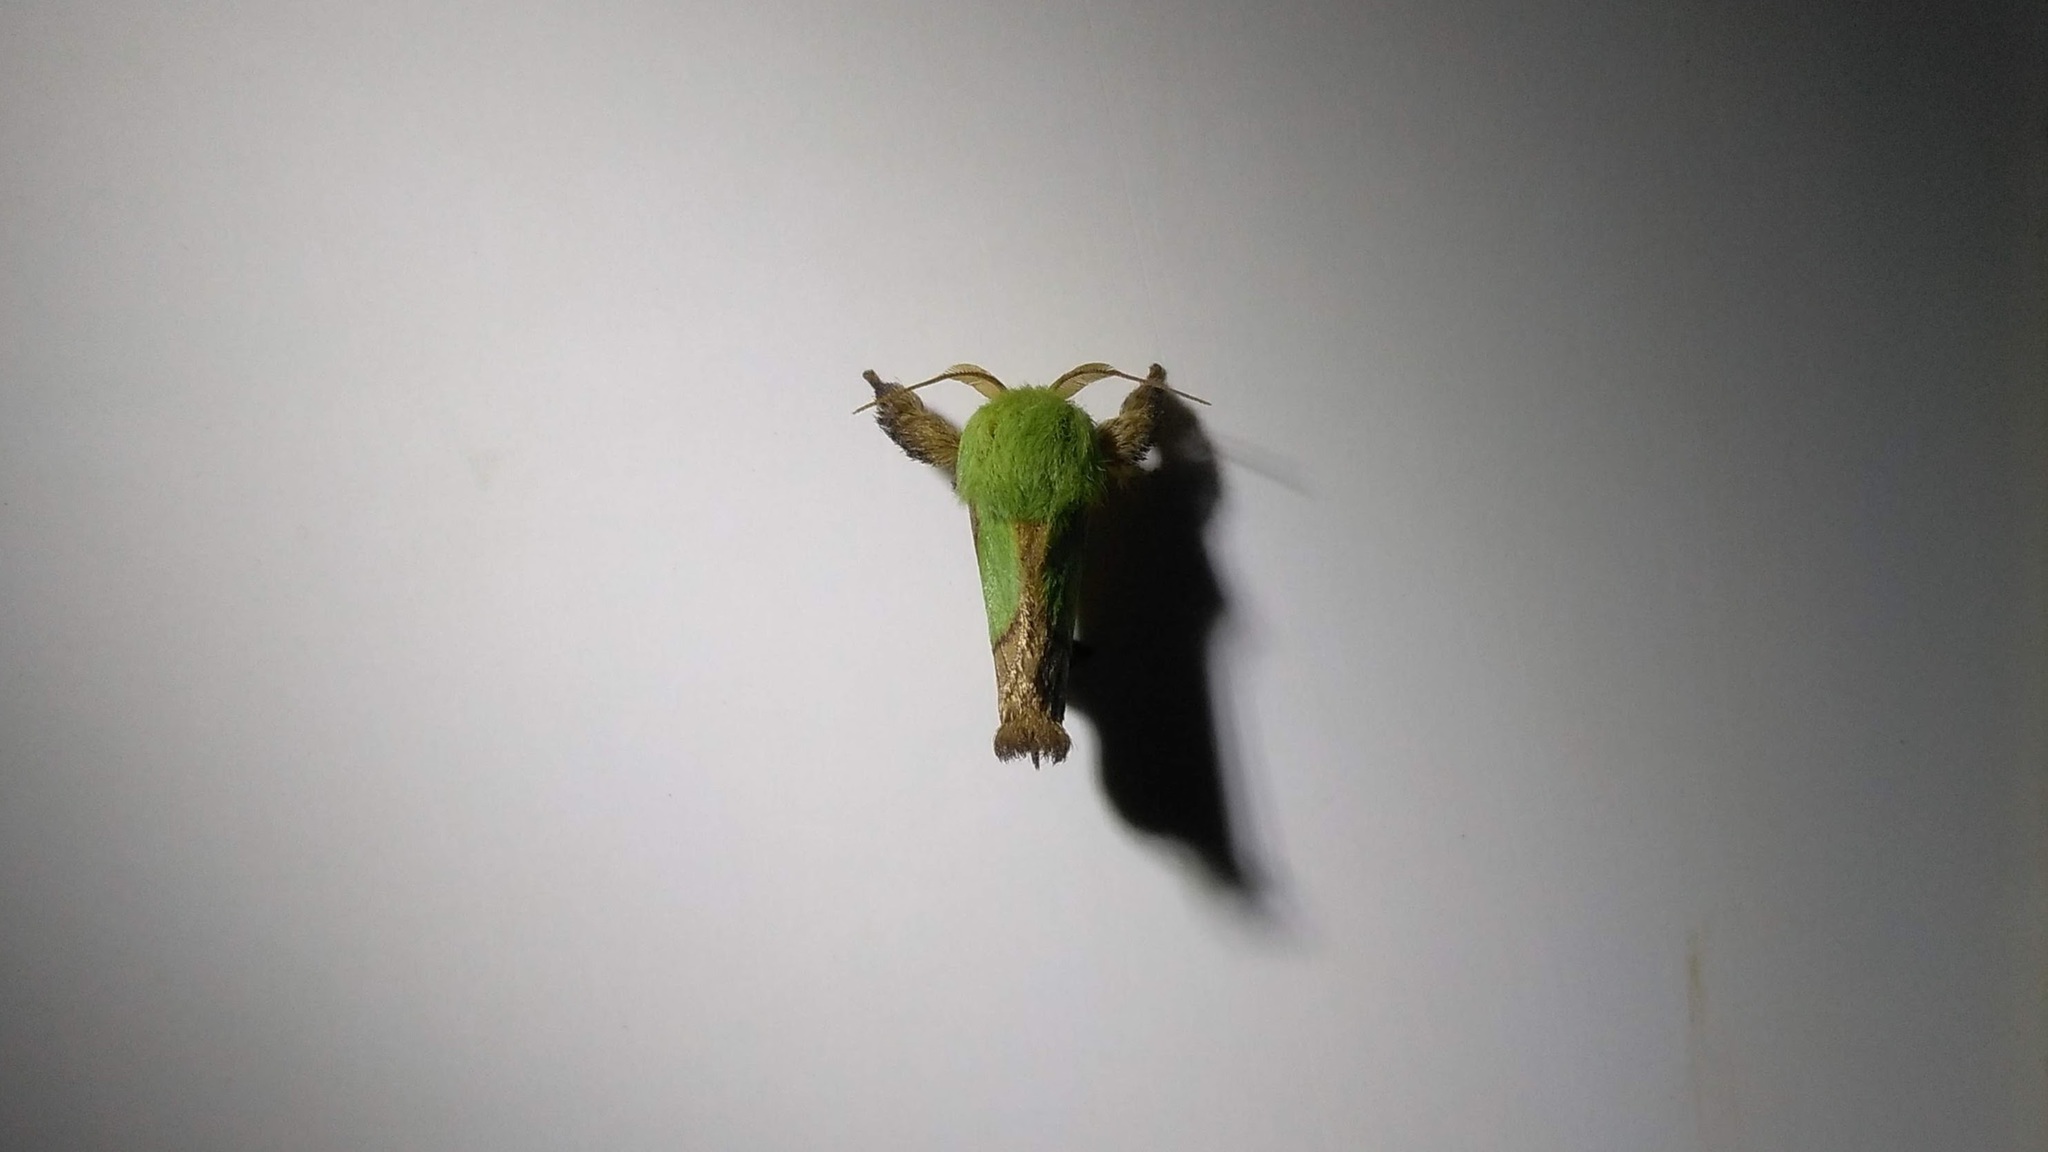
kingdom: Animalia
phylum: Arthropoda
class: Insecta
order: Lepidoptera
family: Limacodidae
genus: Parasa
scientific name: Parasa chloris
